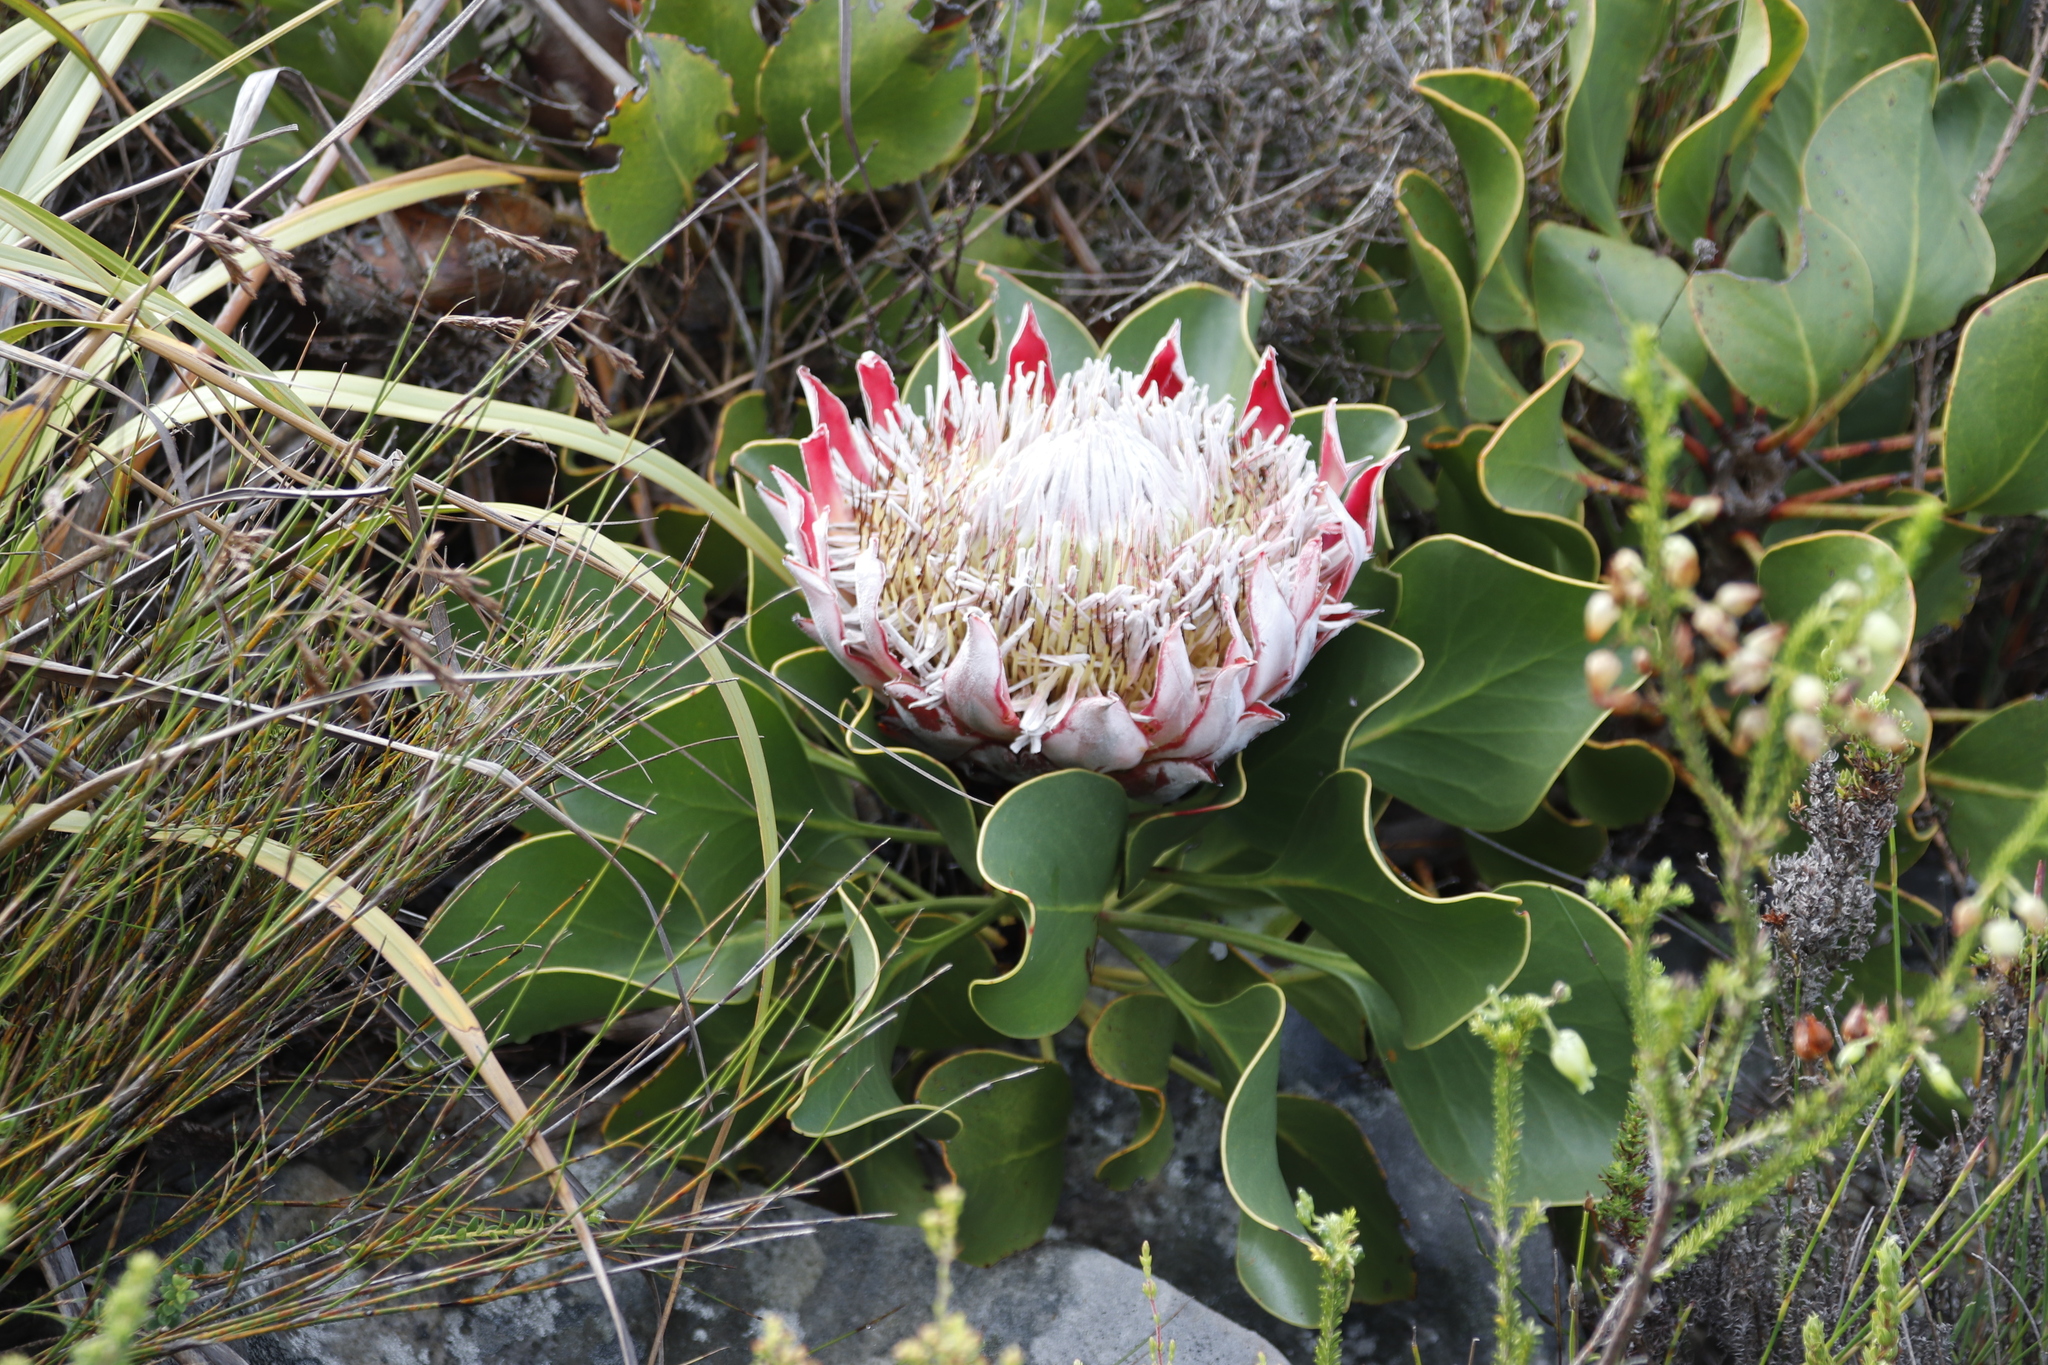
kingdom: Plantae
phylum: Tracheophyta
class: Magnoliopsida
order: Proteales
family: Proteaceae
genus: Protea
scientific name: Protea cynaroides
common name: King protea
